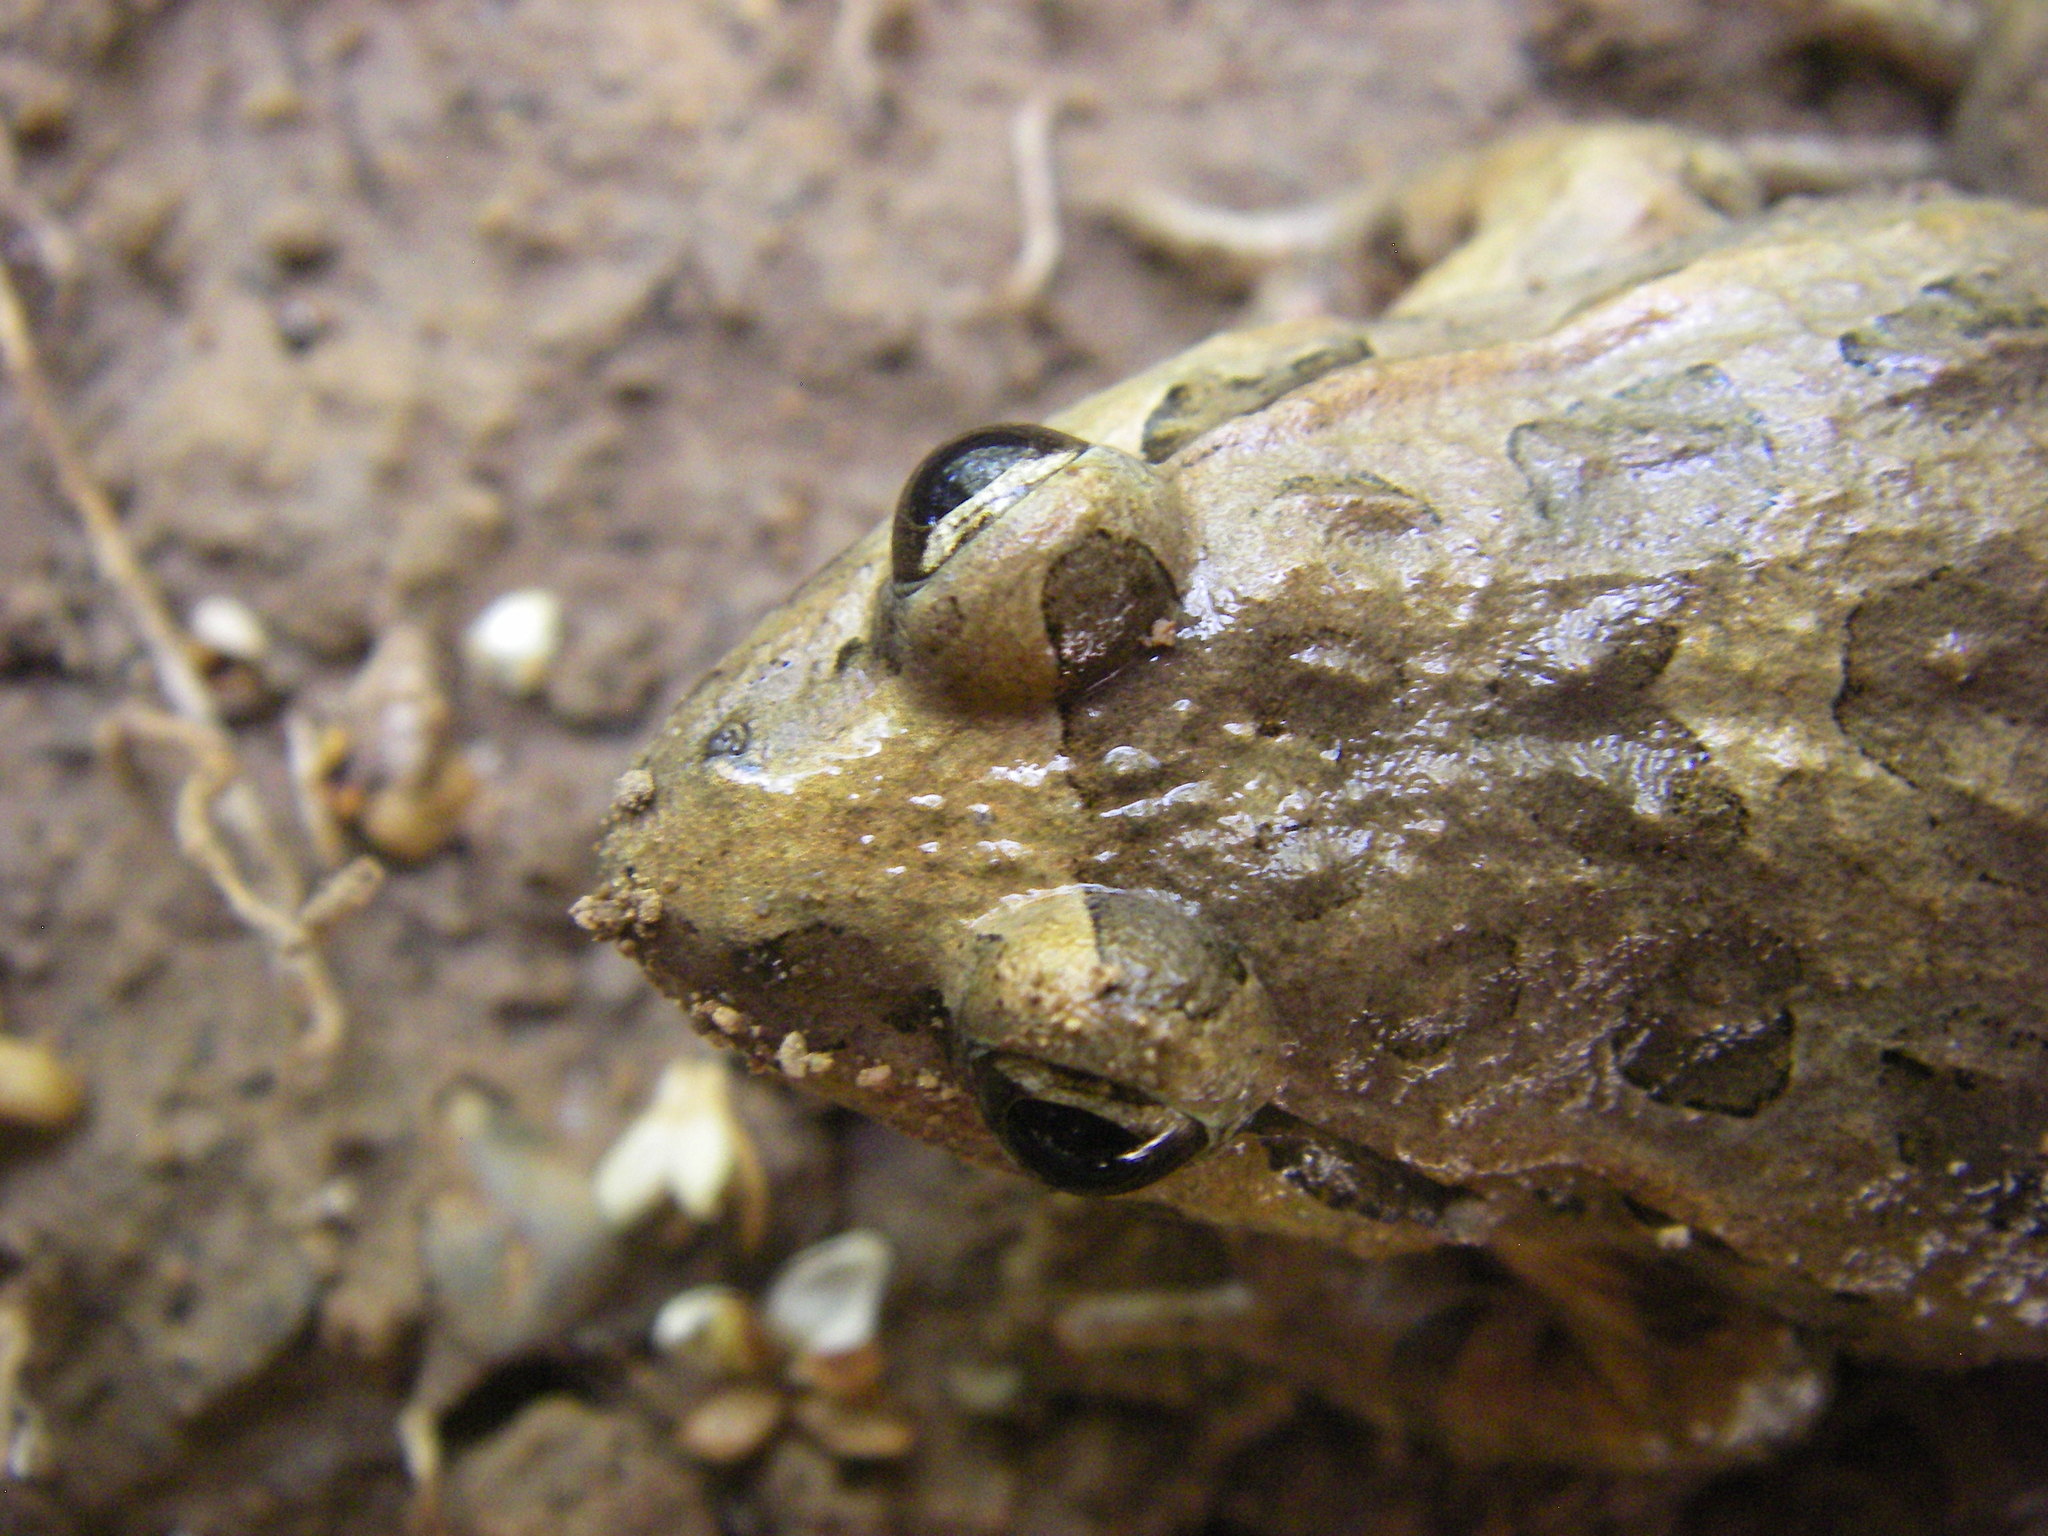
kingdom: Animalia
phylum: Chordata
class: Amphibia
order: Anura
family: Alytidae
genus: Discoglossus
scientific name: Discoglossus scovazzi
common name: Moroccan painted frog
